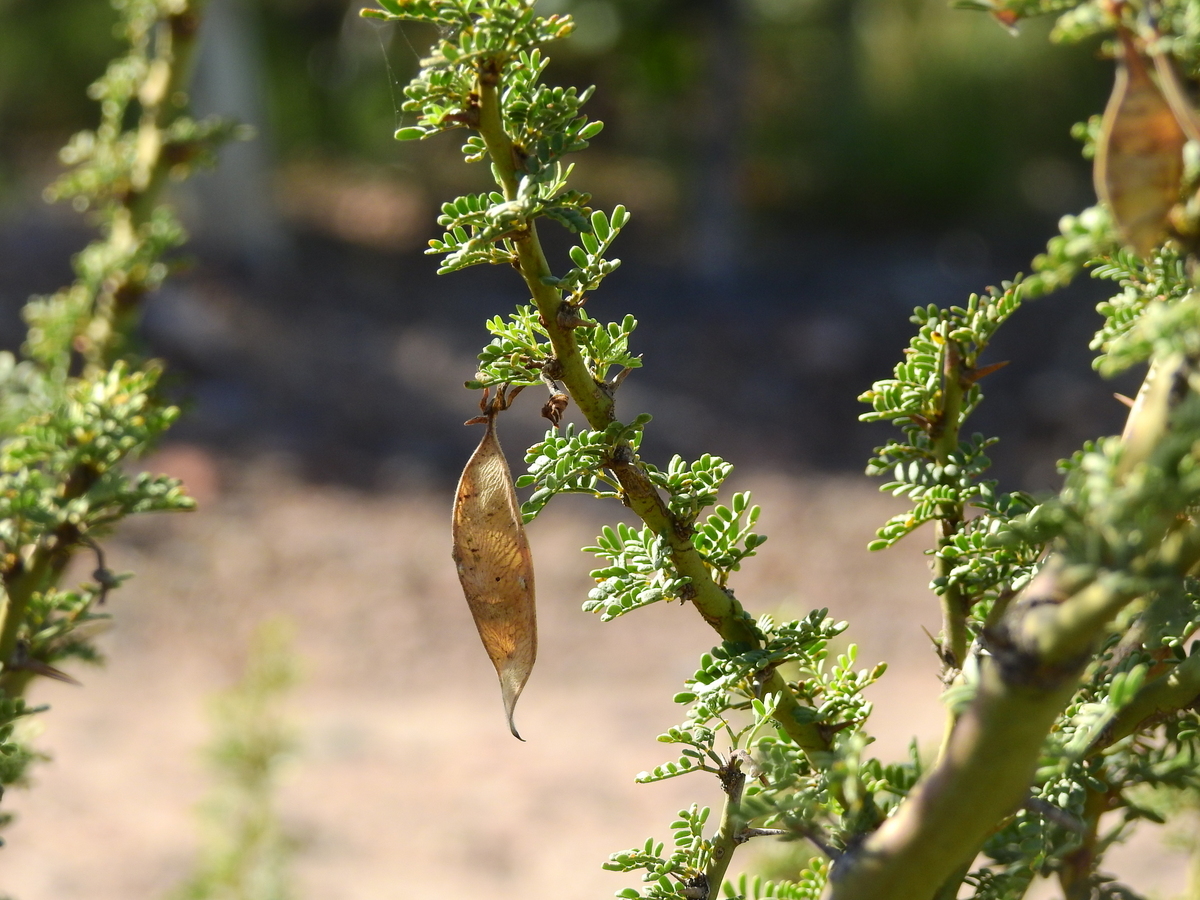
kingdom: Plantae
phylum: Tracheophyta
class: Magnoliopsida
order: Fabales
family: Fabaceae
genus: Parkinsonia
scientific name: Parkinsonia praecox
